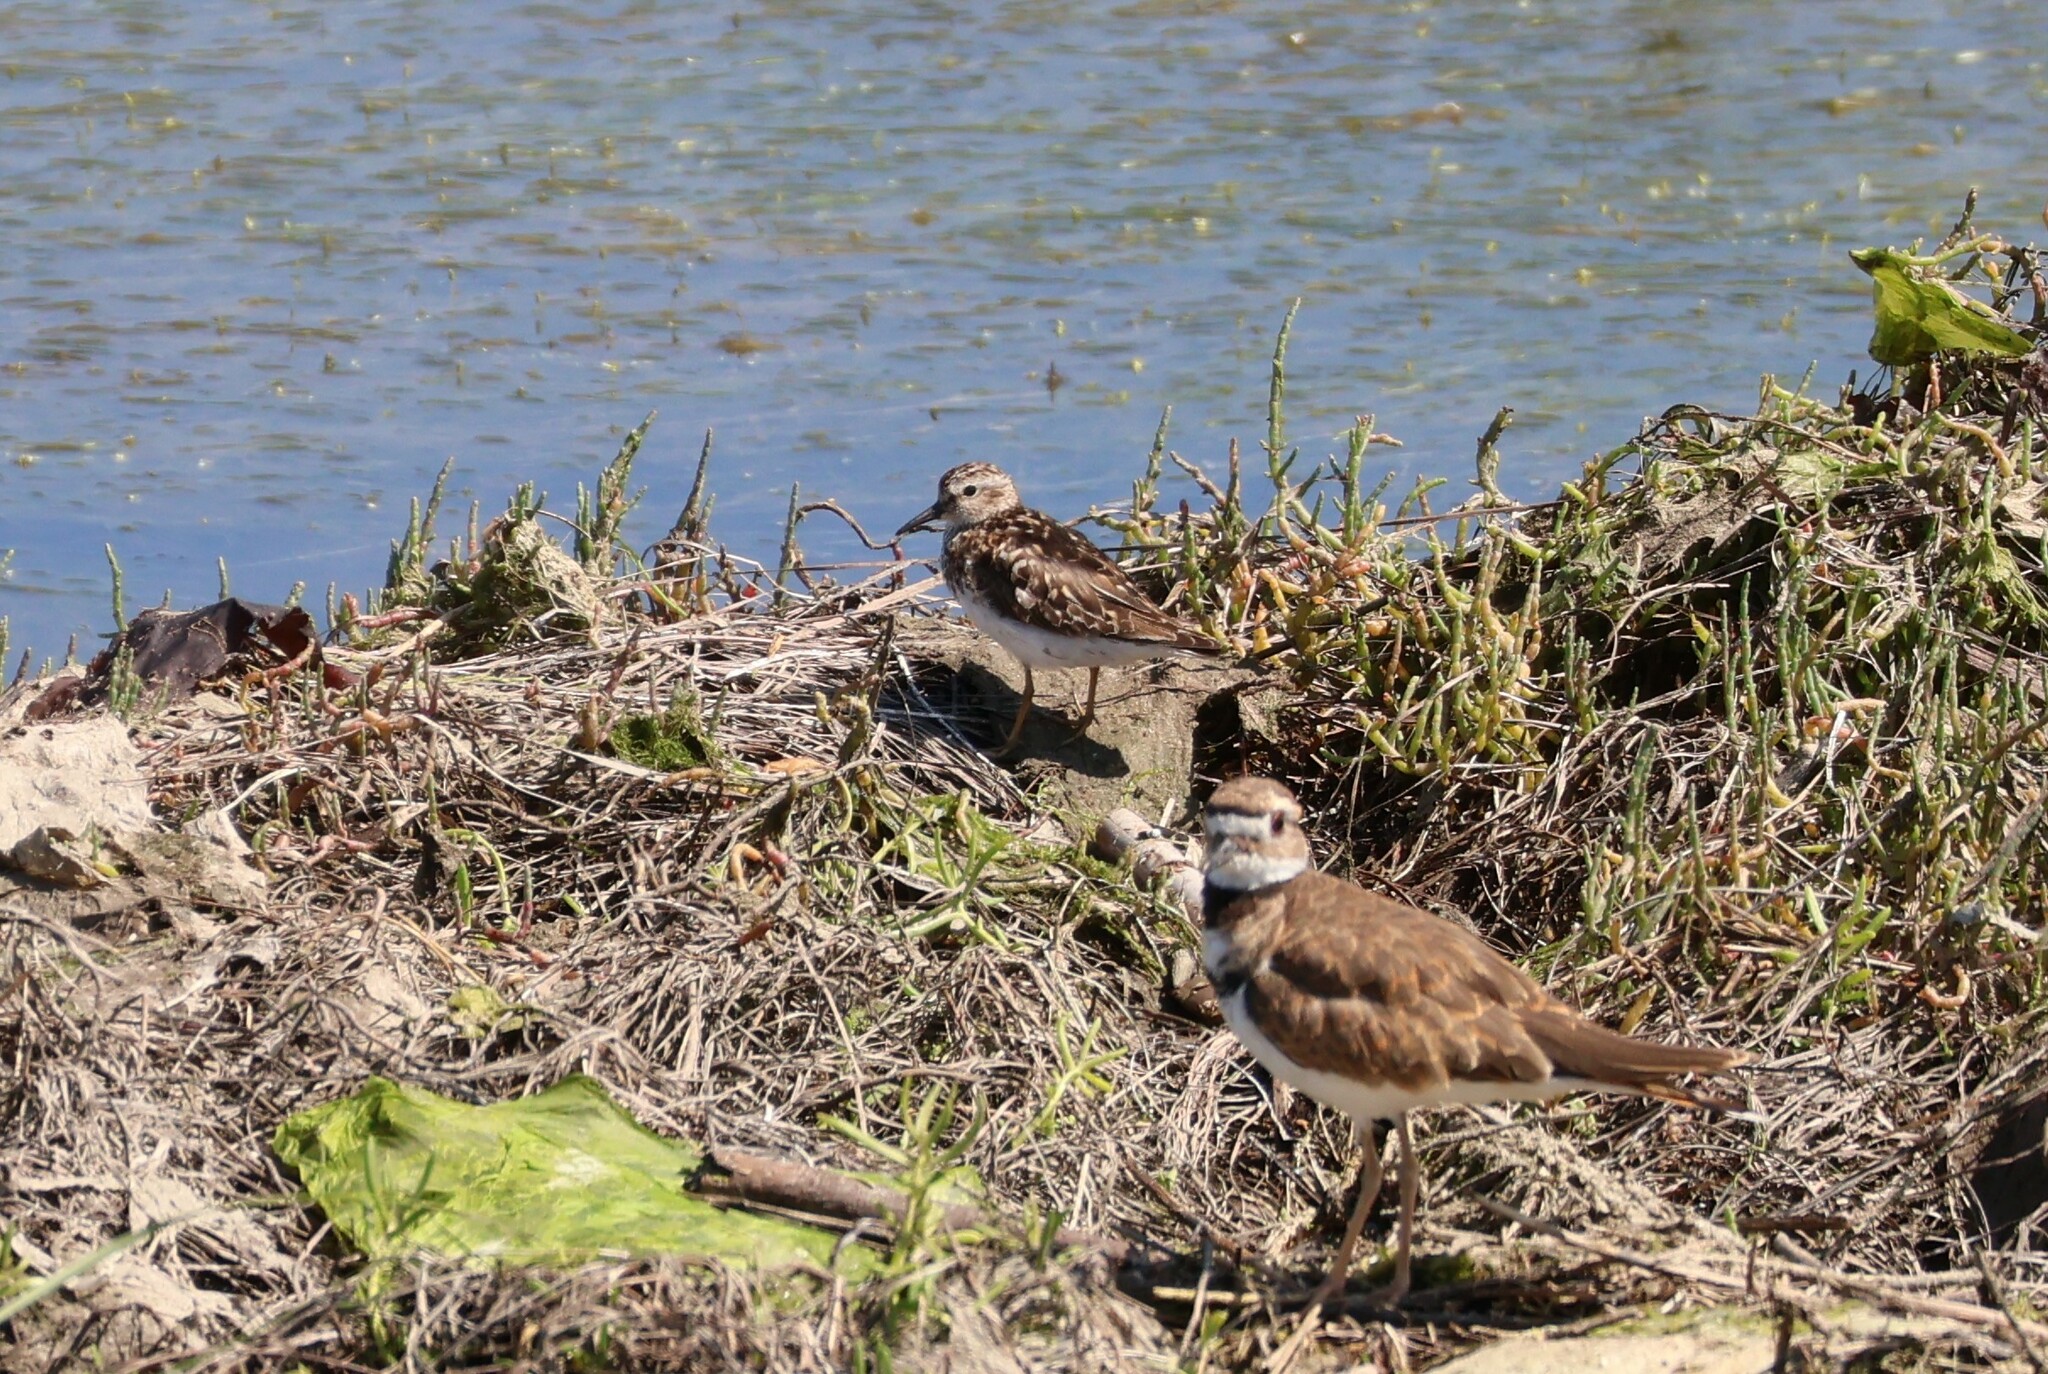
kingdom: Animalia
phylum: Chordata
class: Aves
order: Charadriiformes
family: Scolopacidae
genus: Calidris
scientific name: Calidris minutilla
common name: Least sandpiper
